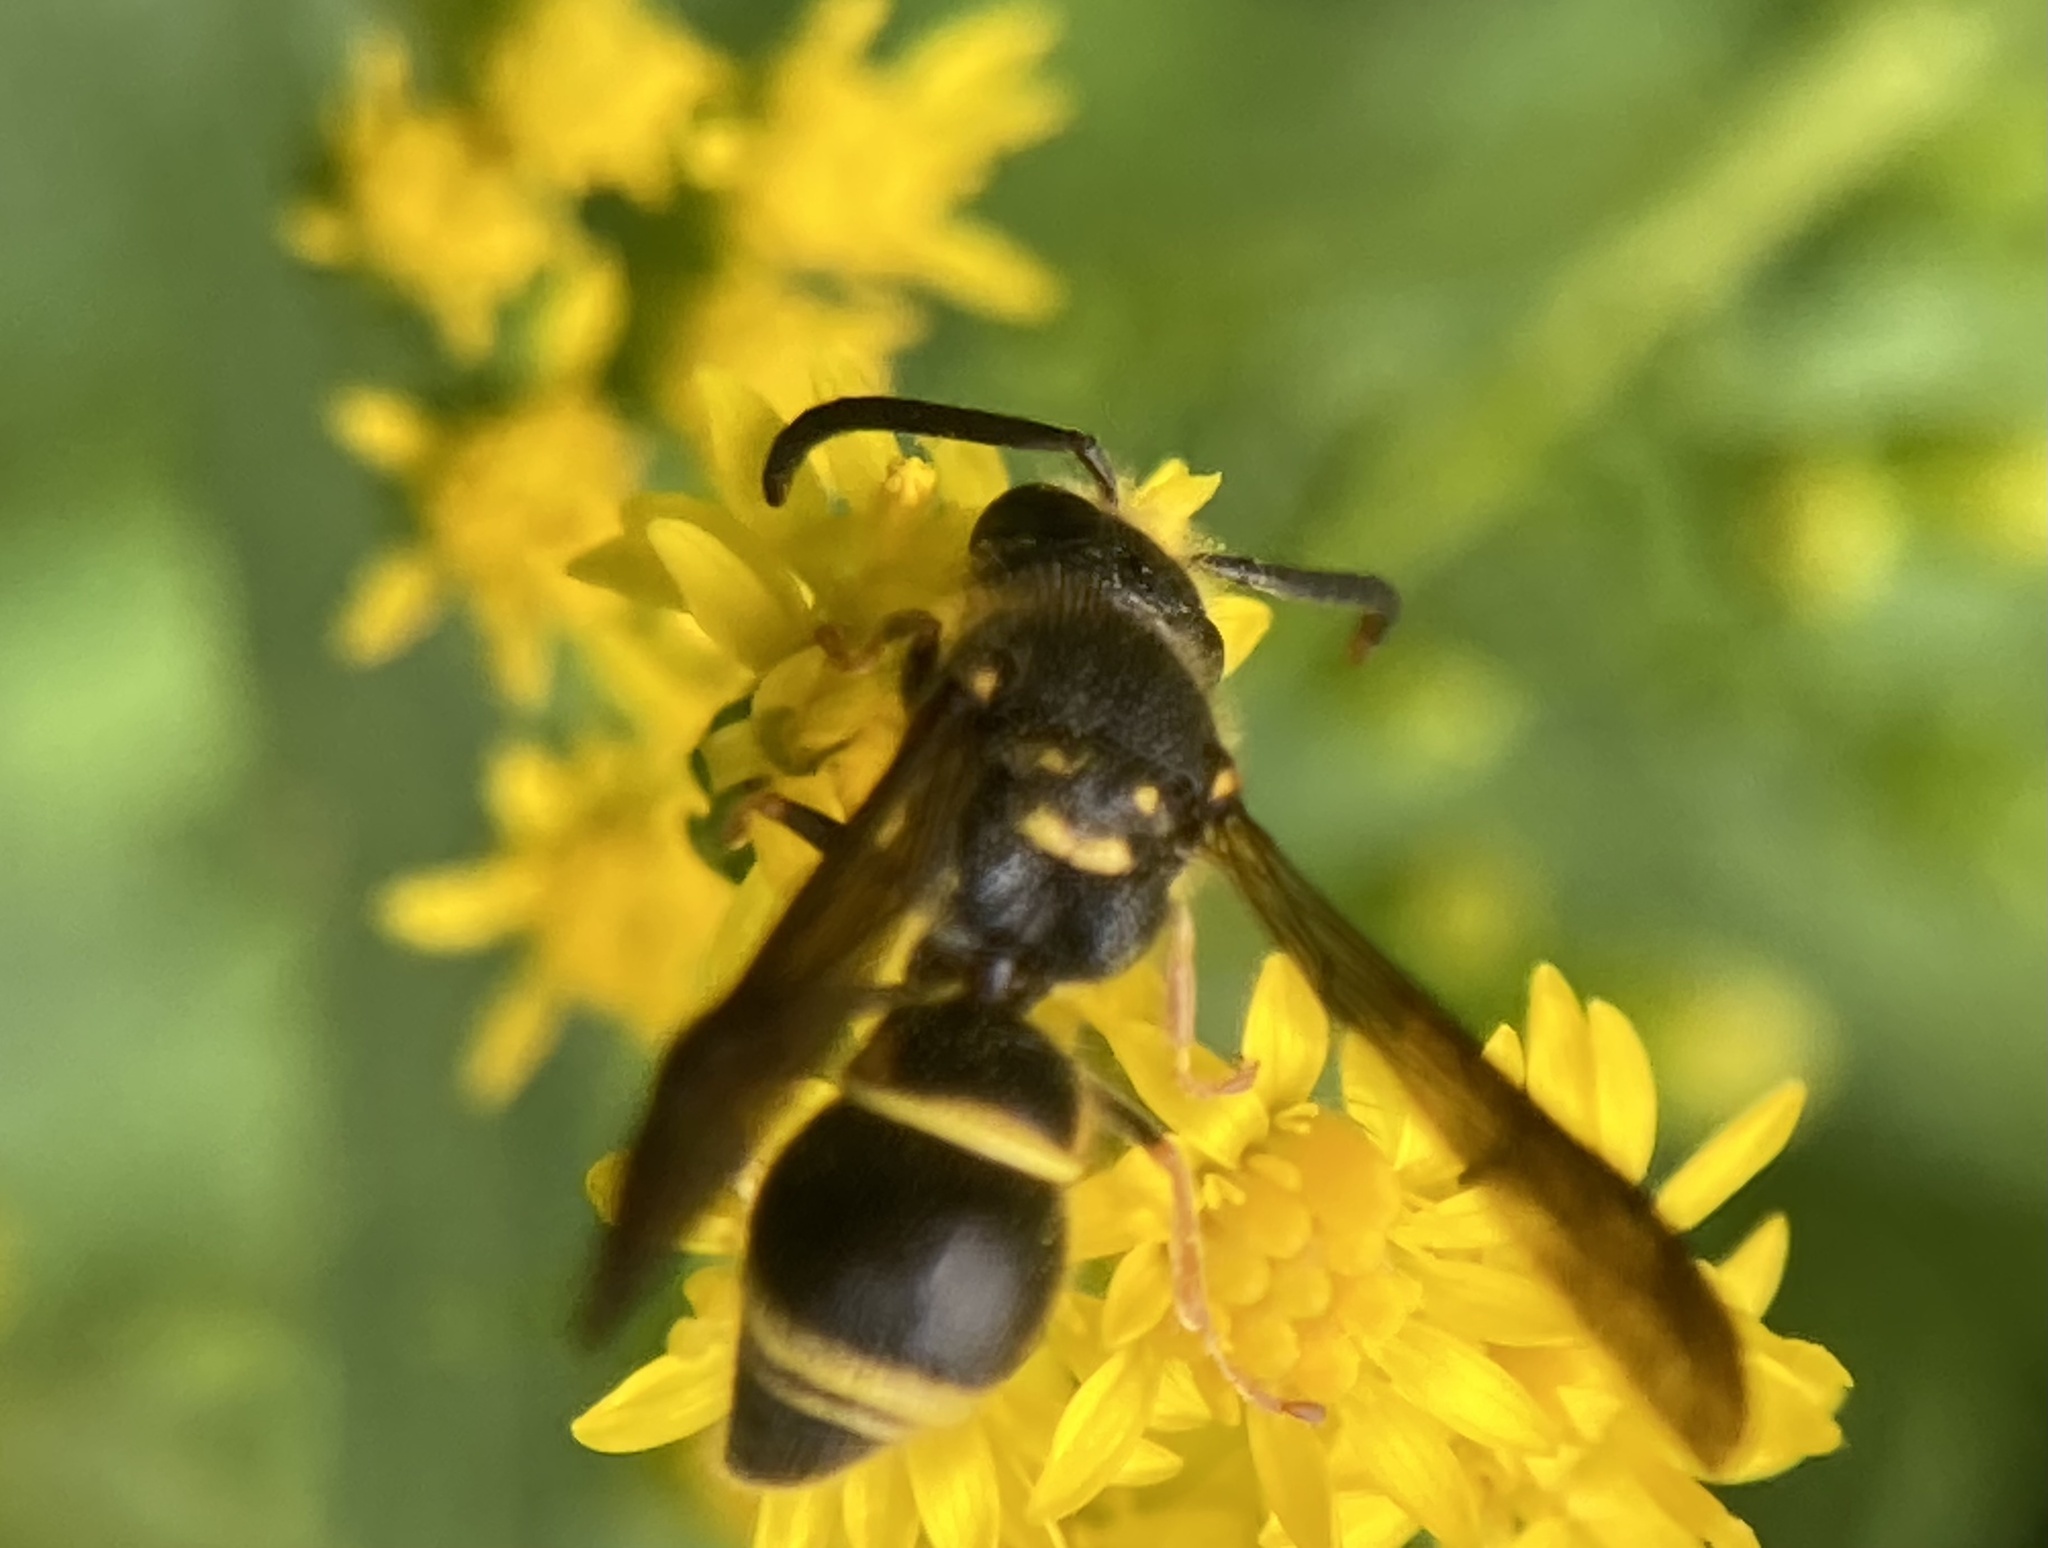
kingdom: Animalia
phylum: Arthropoda
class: Insecta
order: Hymenoptera
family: Vespidae
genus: Ancistrocerus
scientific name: Ancistrocerus campestris
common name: Smiling mason wasp
